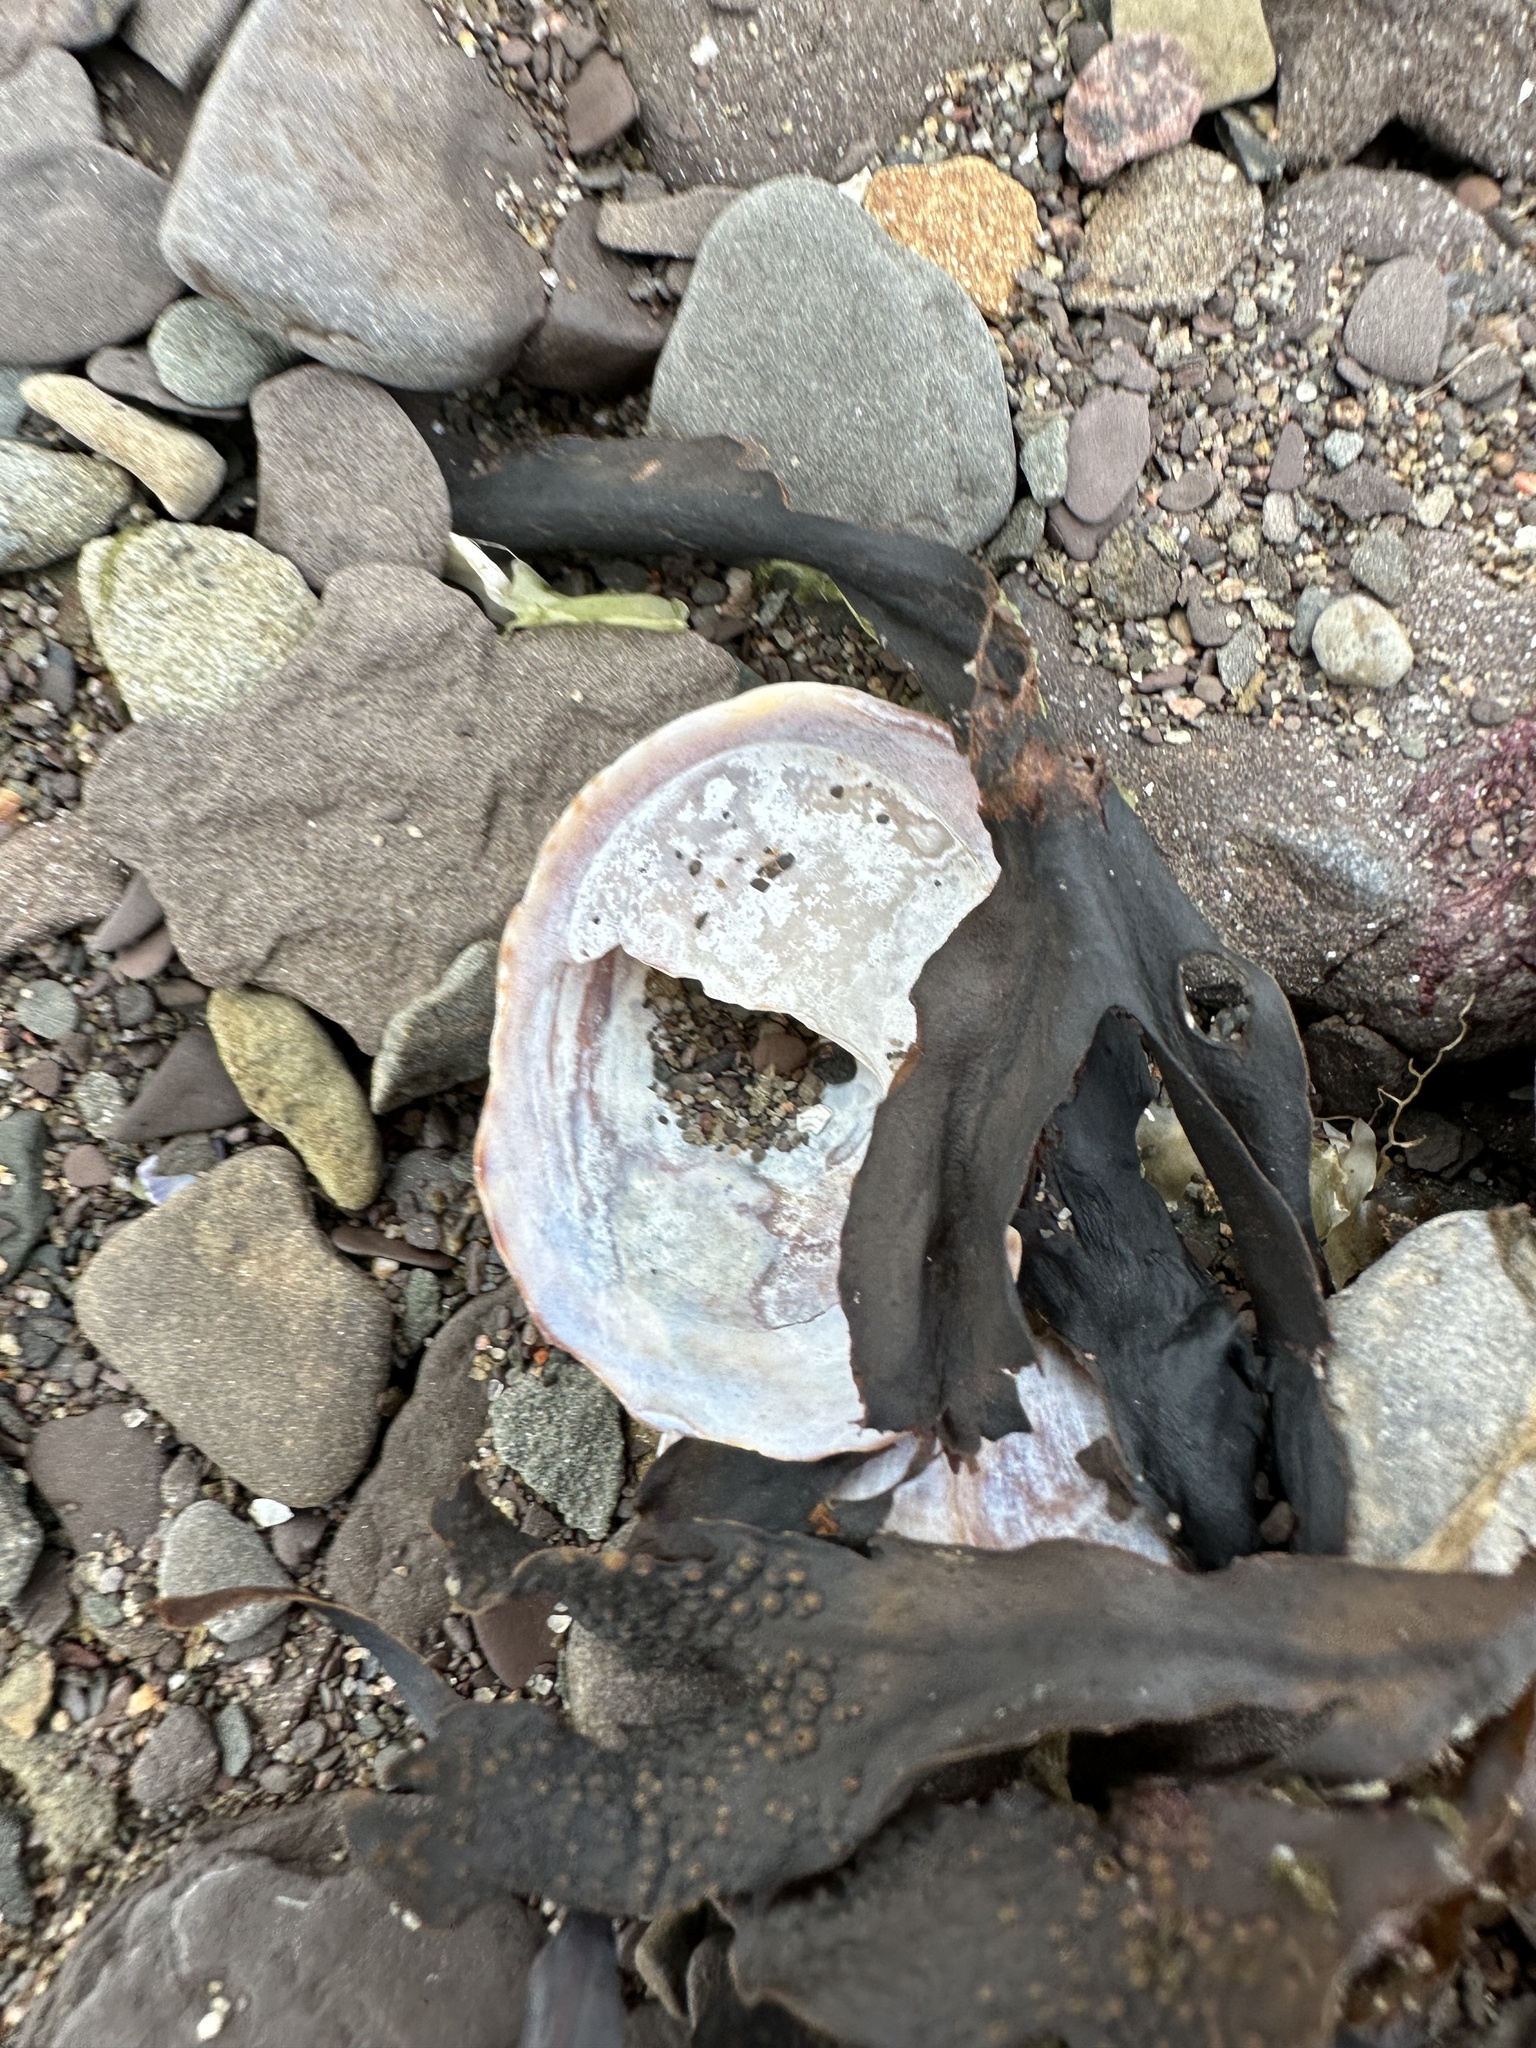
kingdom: Animalia
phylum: Mollusca
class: Gastropoda
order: Littorinimorpha
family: Calyptraeidae
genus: Crepidula
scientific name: Crepidula fornicata
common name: Slipper limpet
